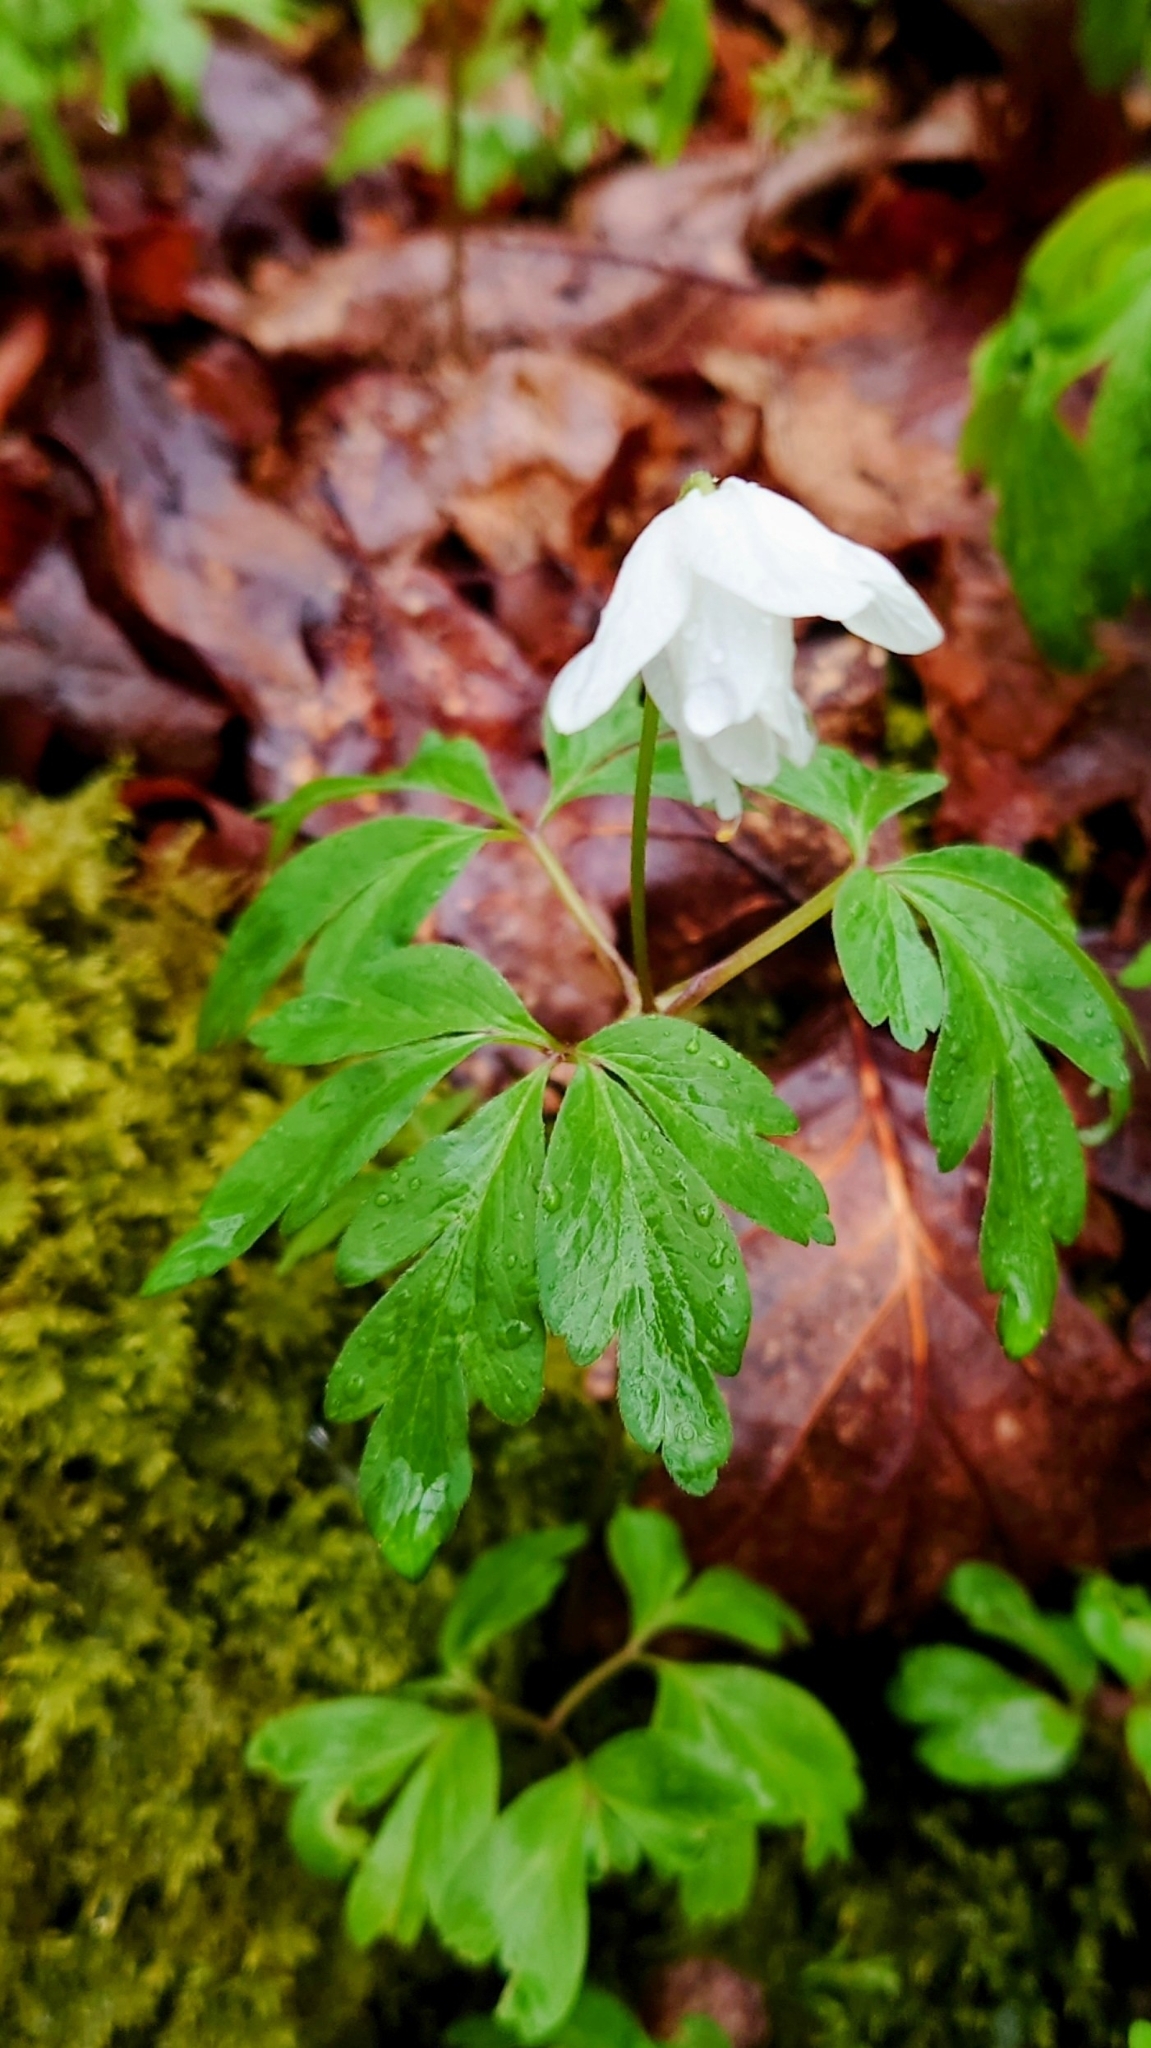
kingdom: Plantae
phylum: Tracheophyta
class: Magnoliopsida
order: Ranunculales
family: Ranunculaceae
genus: Anemone
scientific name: Anemone nemorosa
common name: Wood anemone
